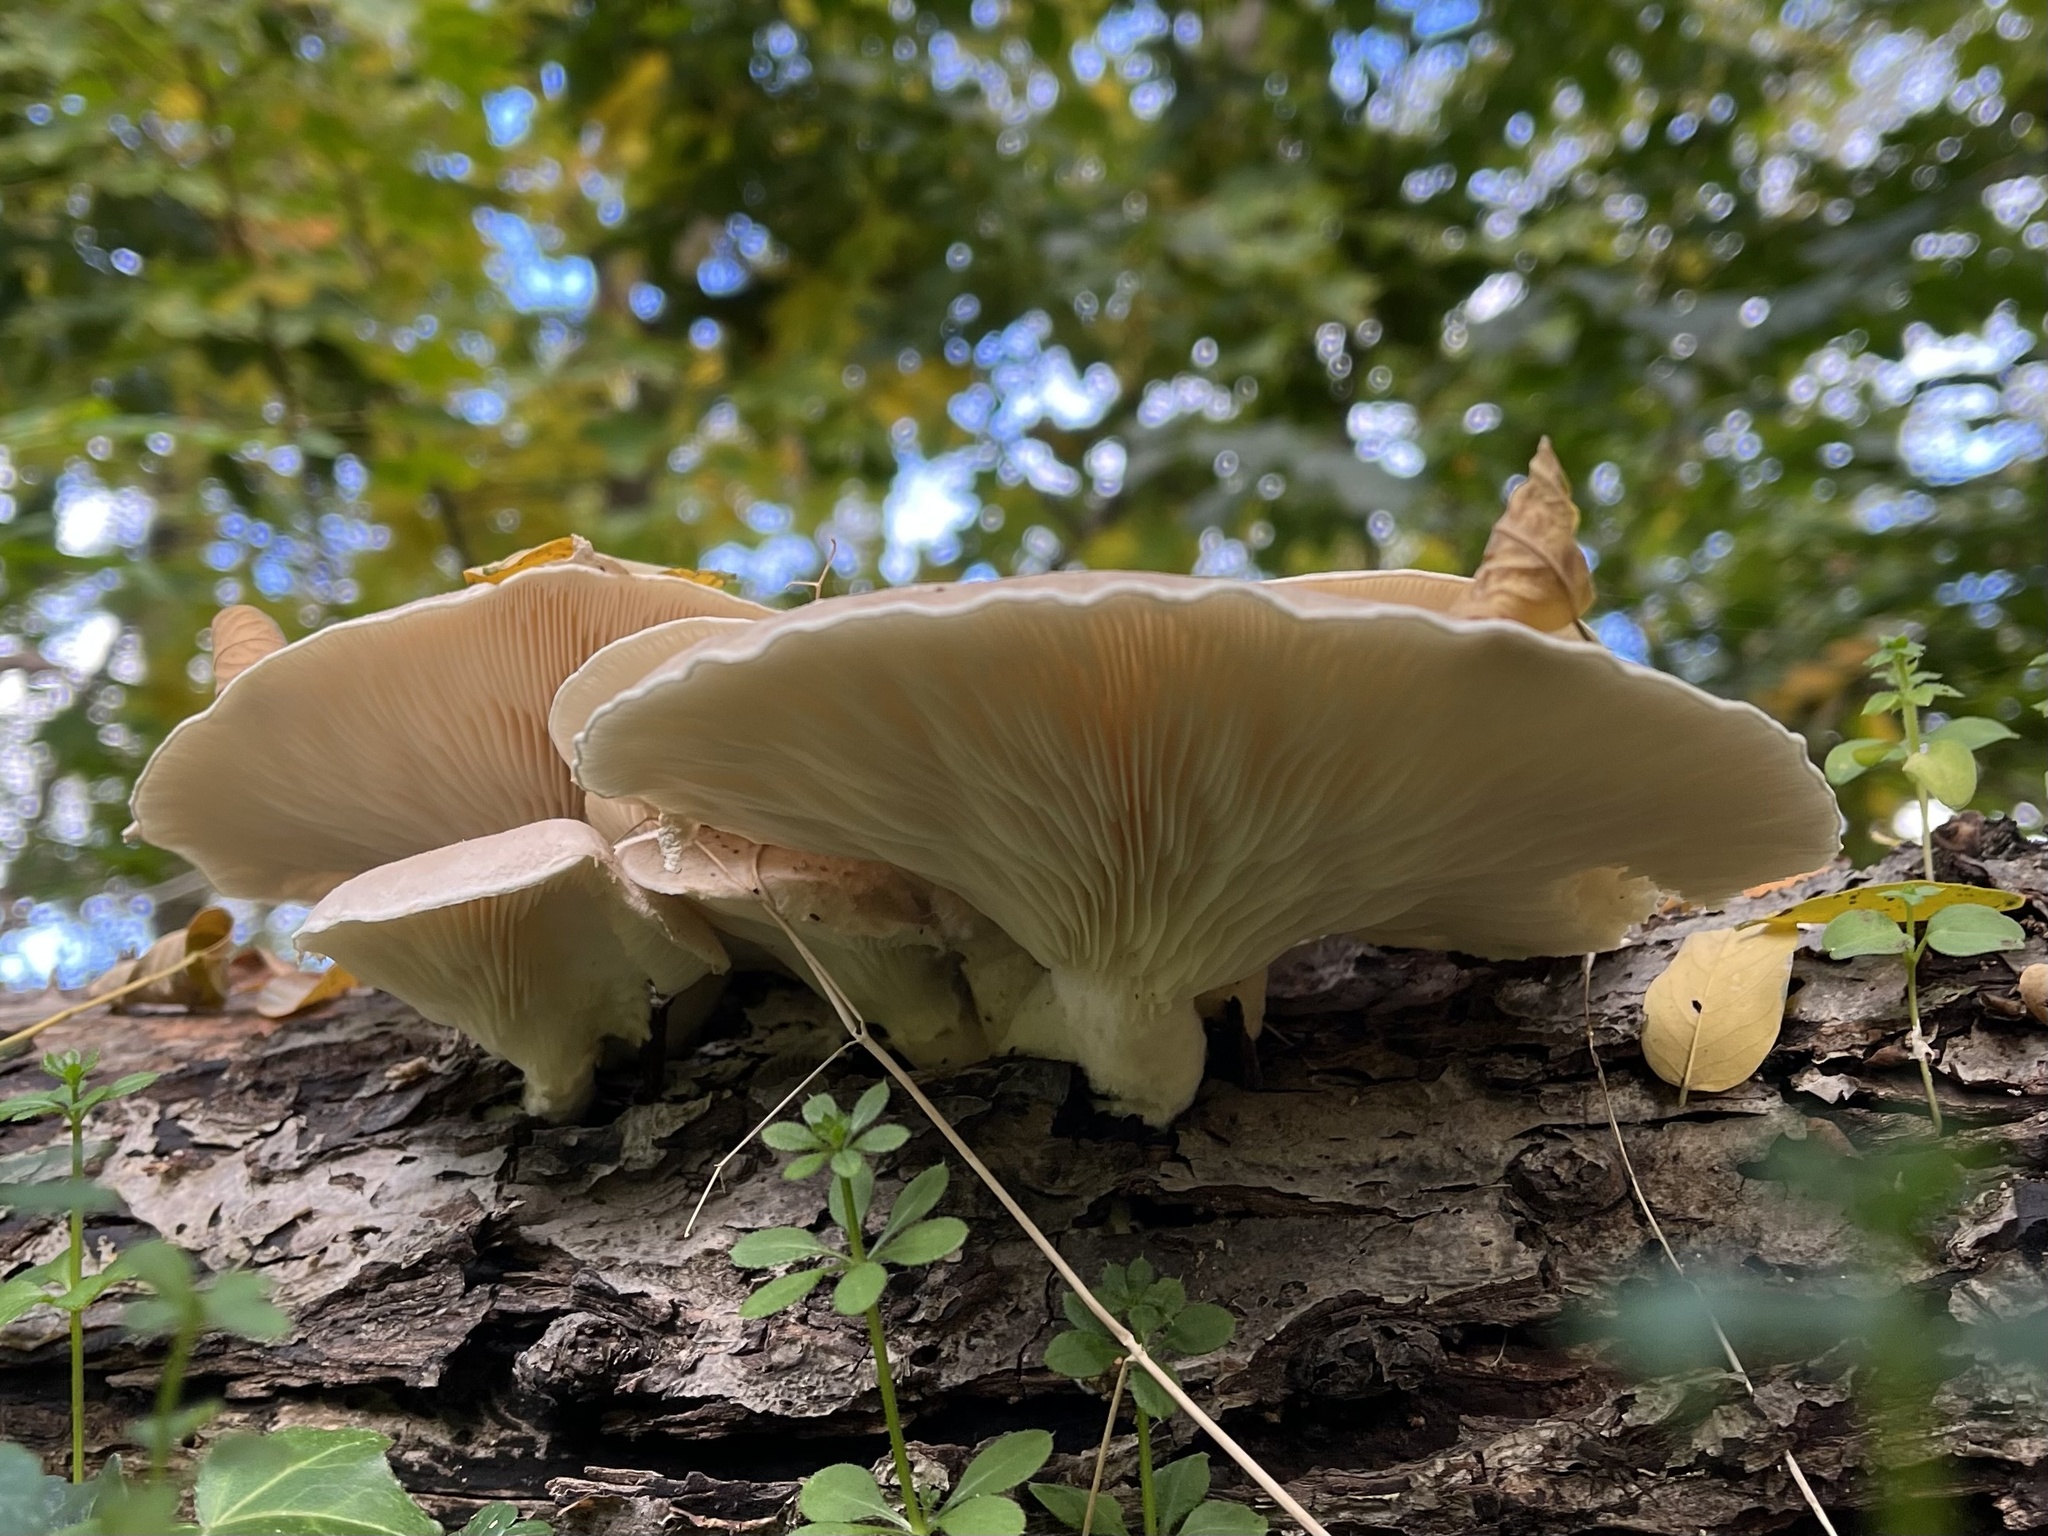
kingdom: Fungi
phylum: Basidiomycota
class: Agaricomycetes
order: Agaricales
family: Pleurotaceae
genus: Pleurotus
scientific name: Pleurotus dryinus
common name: Veiled oyster
